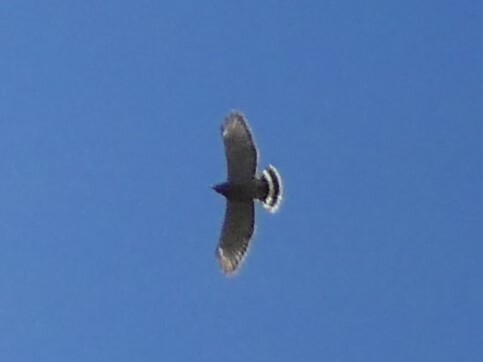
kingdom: Animalia
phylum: Chordata
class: Aves
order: Accipitriformes
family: Accipitridae
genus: Buteo
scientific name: Buteo platypterus
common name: Broad-winged hawk
